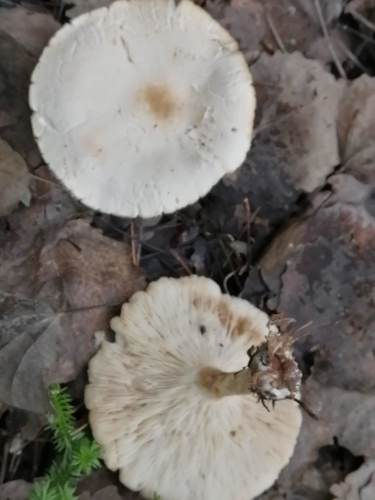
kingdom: Fungi
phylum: Basidiomycota
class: Agaricomycetes
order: Agaricales
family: Tricholomataceae
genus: Clitocybe
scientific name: Clitocybe phyllophila
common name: Frosty funnel
